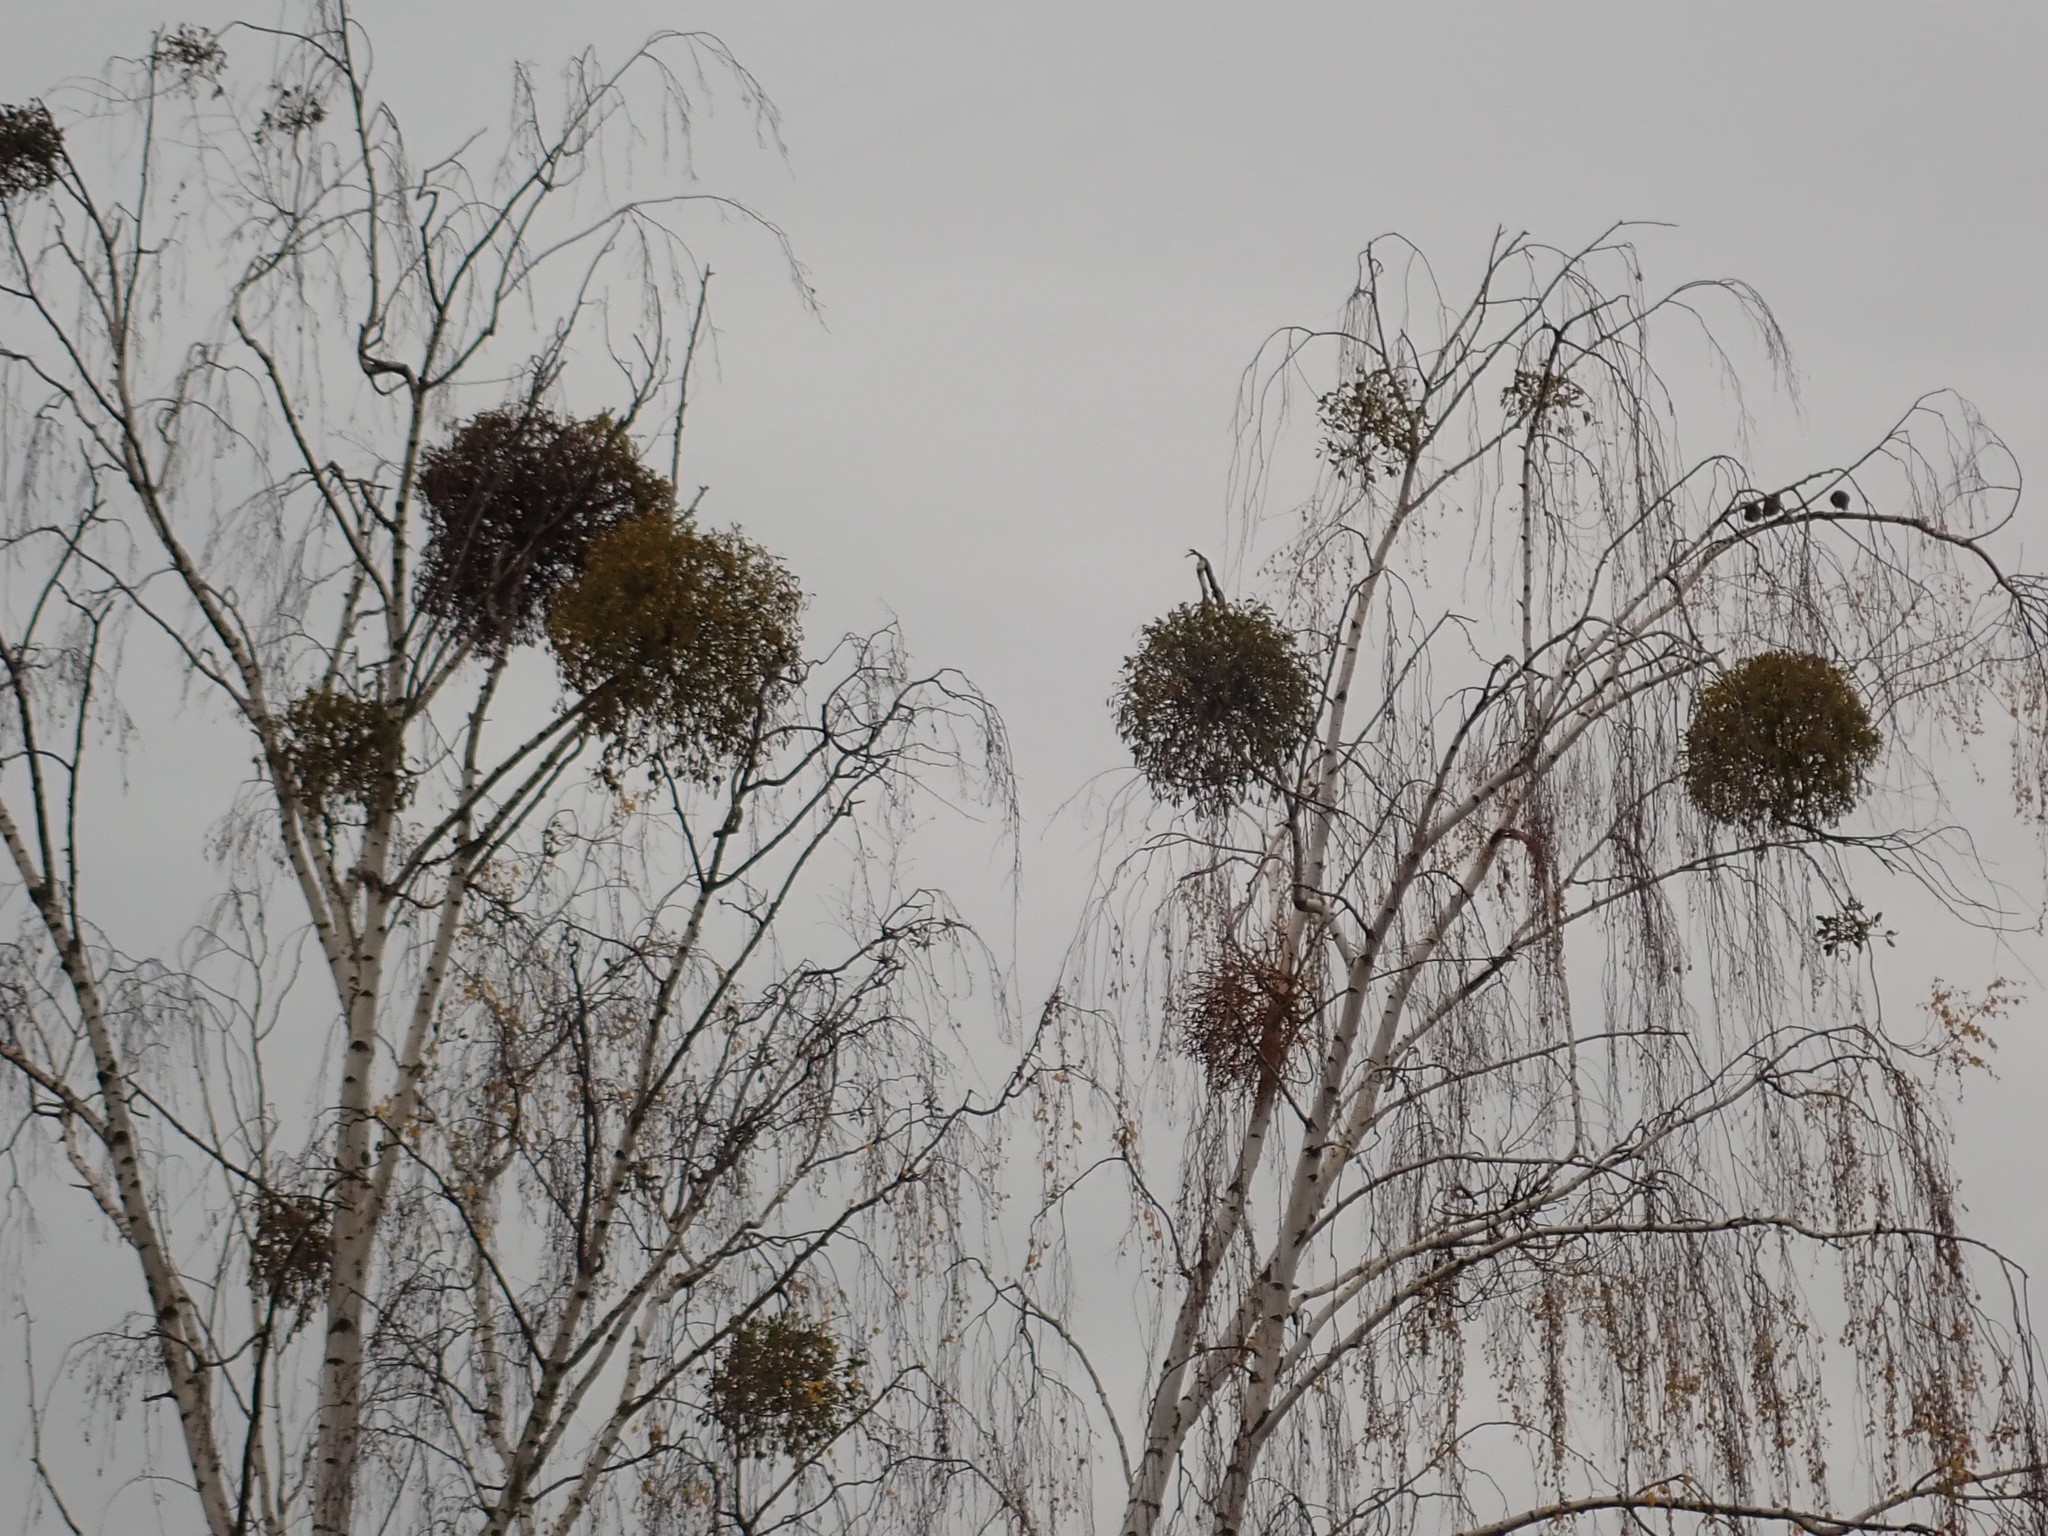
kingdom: Plantae
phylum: Tracheophyta
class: Magnoliopsida
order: Santalales
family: Viscaceae
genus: Viscum
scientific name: Viscum album
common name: Mistletoe
